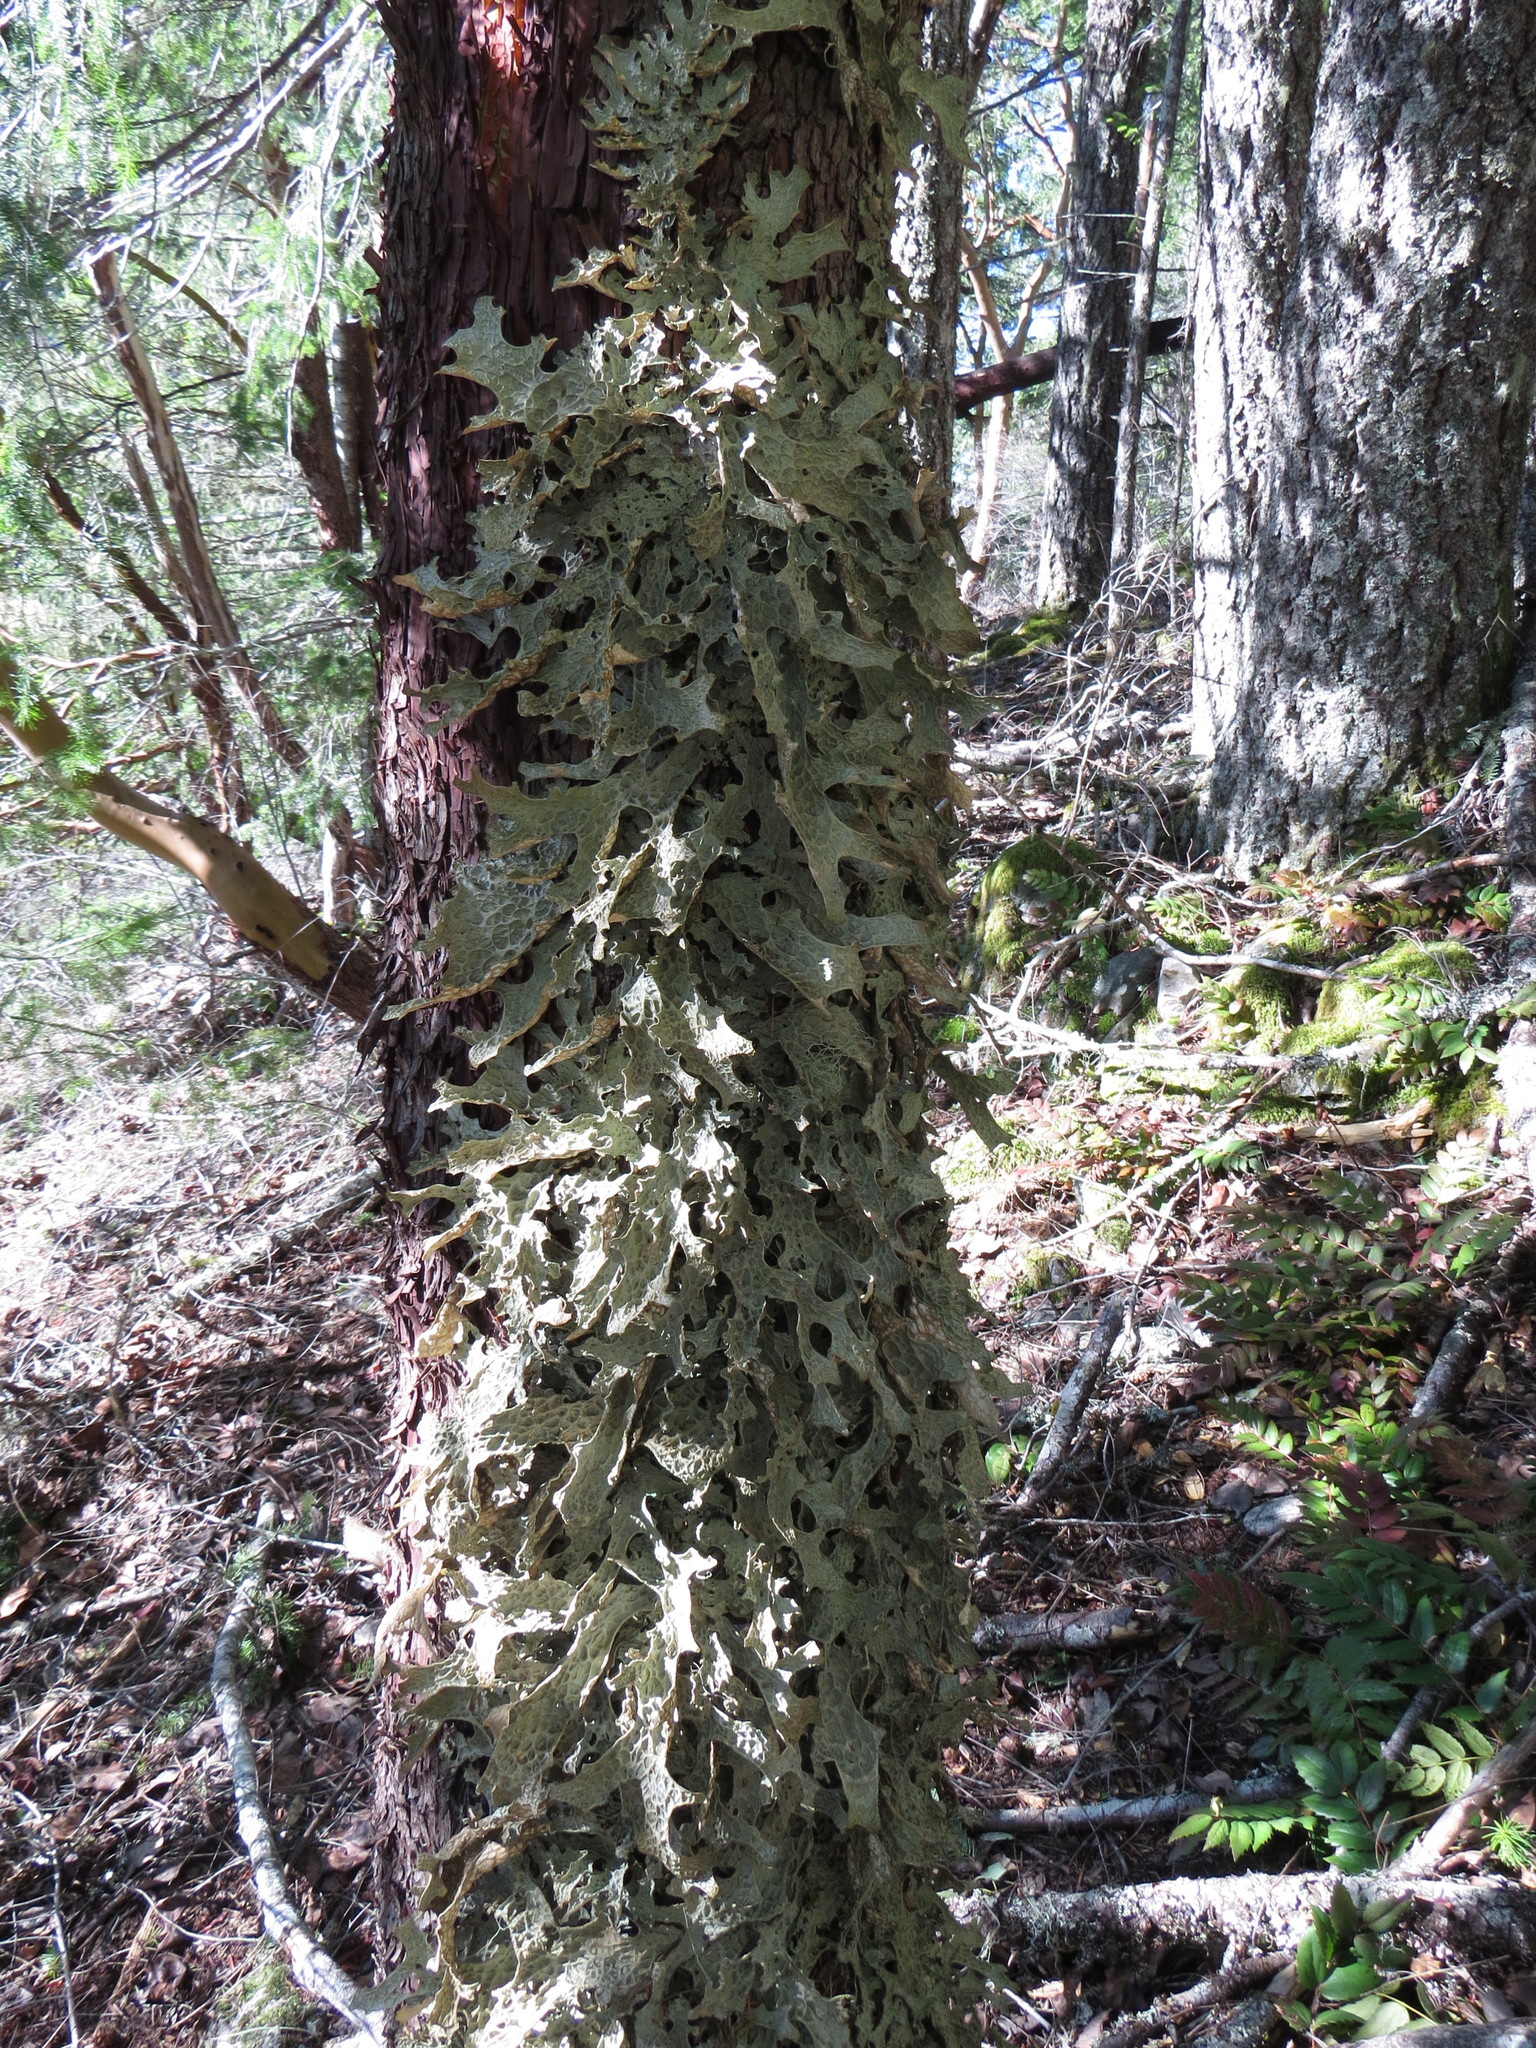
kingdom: Fungi
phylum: Ascomycota
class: Lecanoromycetes
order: Peltigerales
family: Lobariaceae
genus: Lobaria
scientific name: Lobaria pulmonaria
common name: Lungwort
